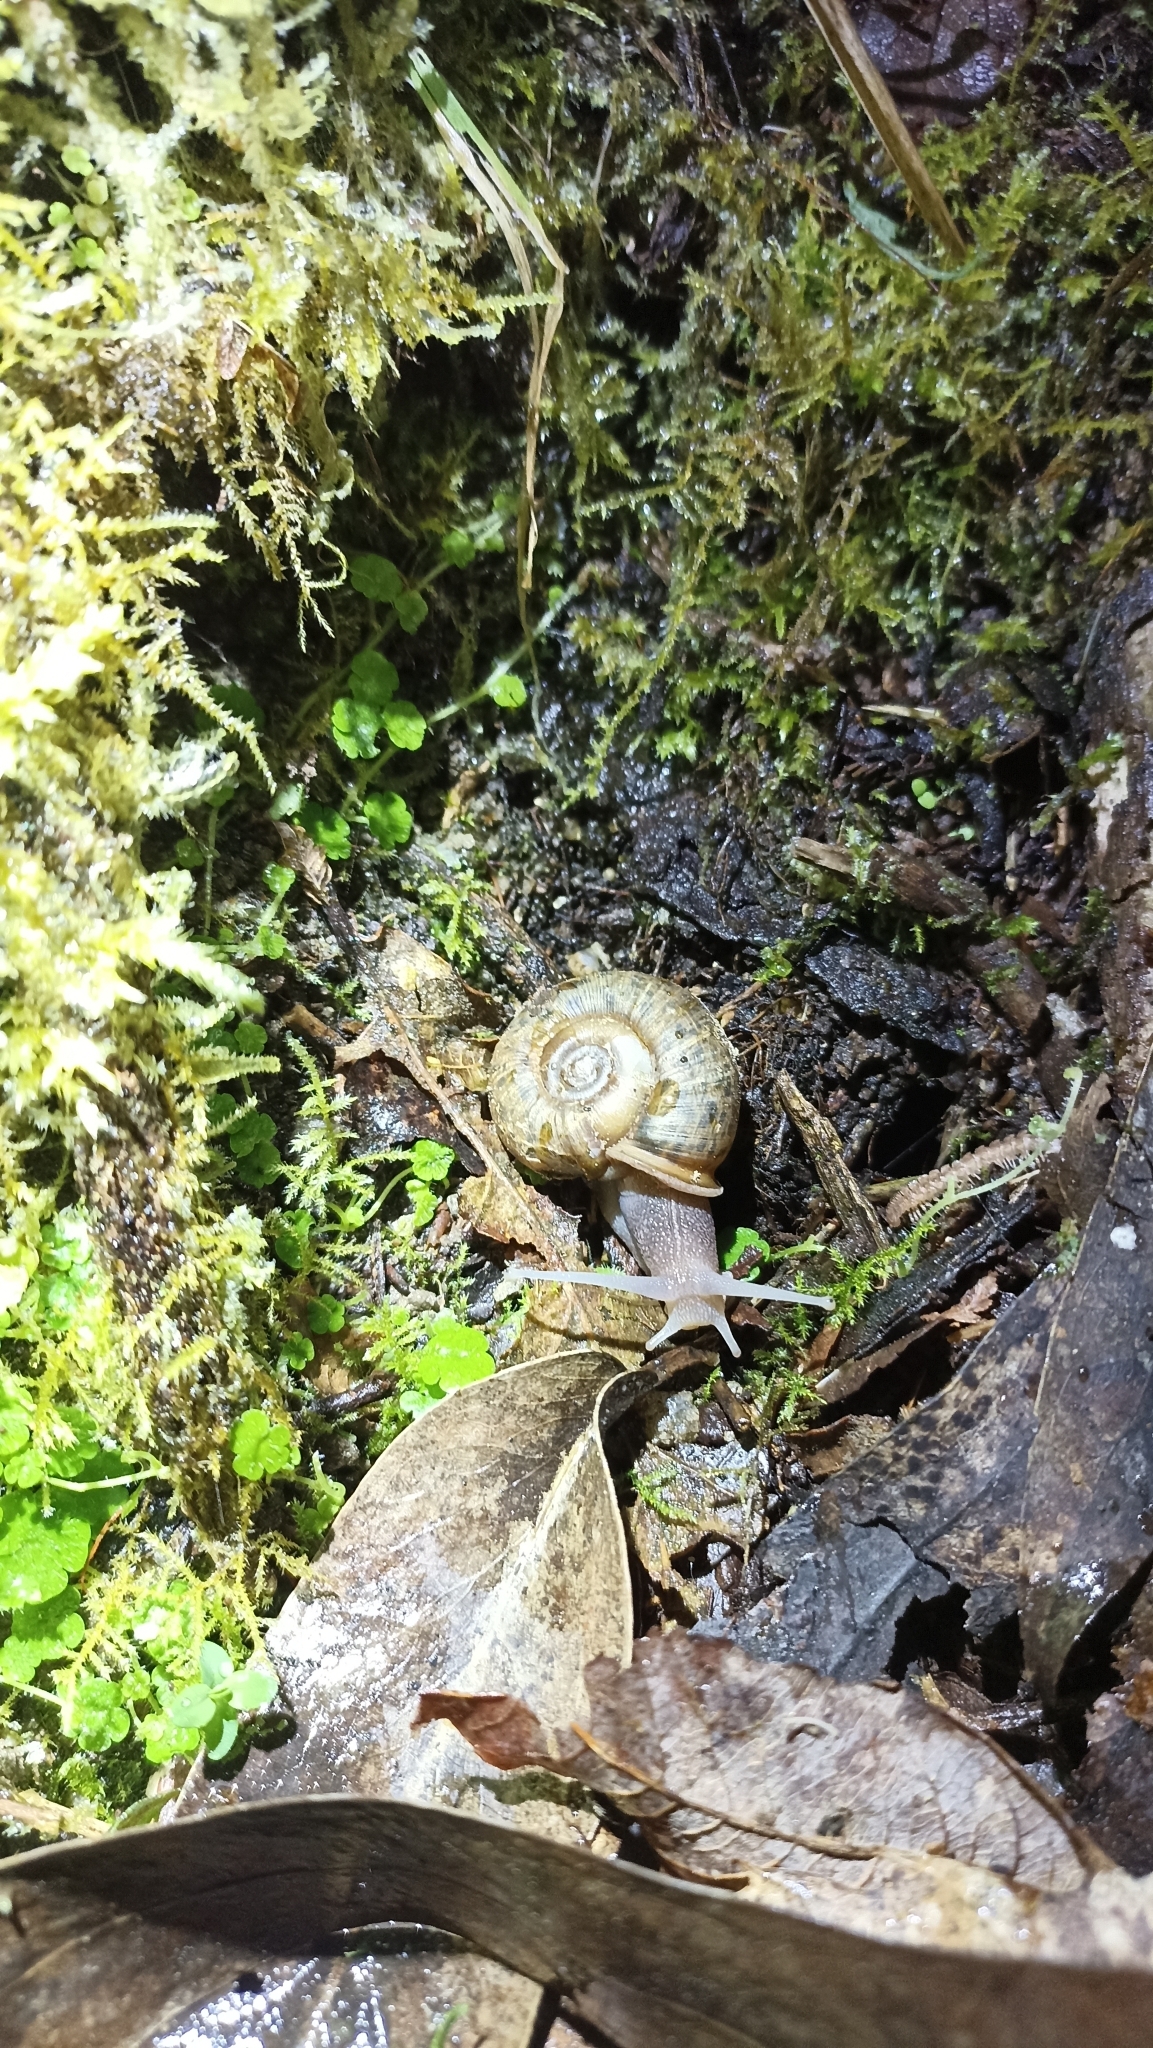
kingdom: Animalia
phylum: Mollusca
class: Gastropoda
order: Stylommatophora
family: Elonidae
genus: Elona
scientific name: Elona quimperiana
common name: Quimper snail
